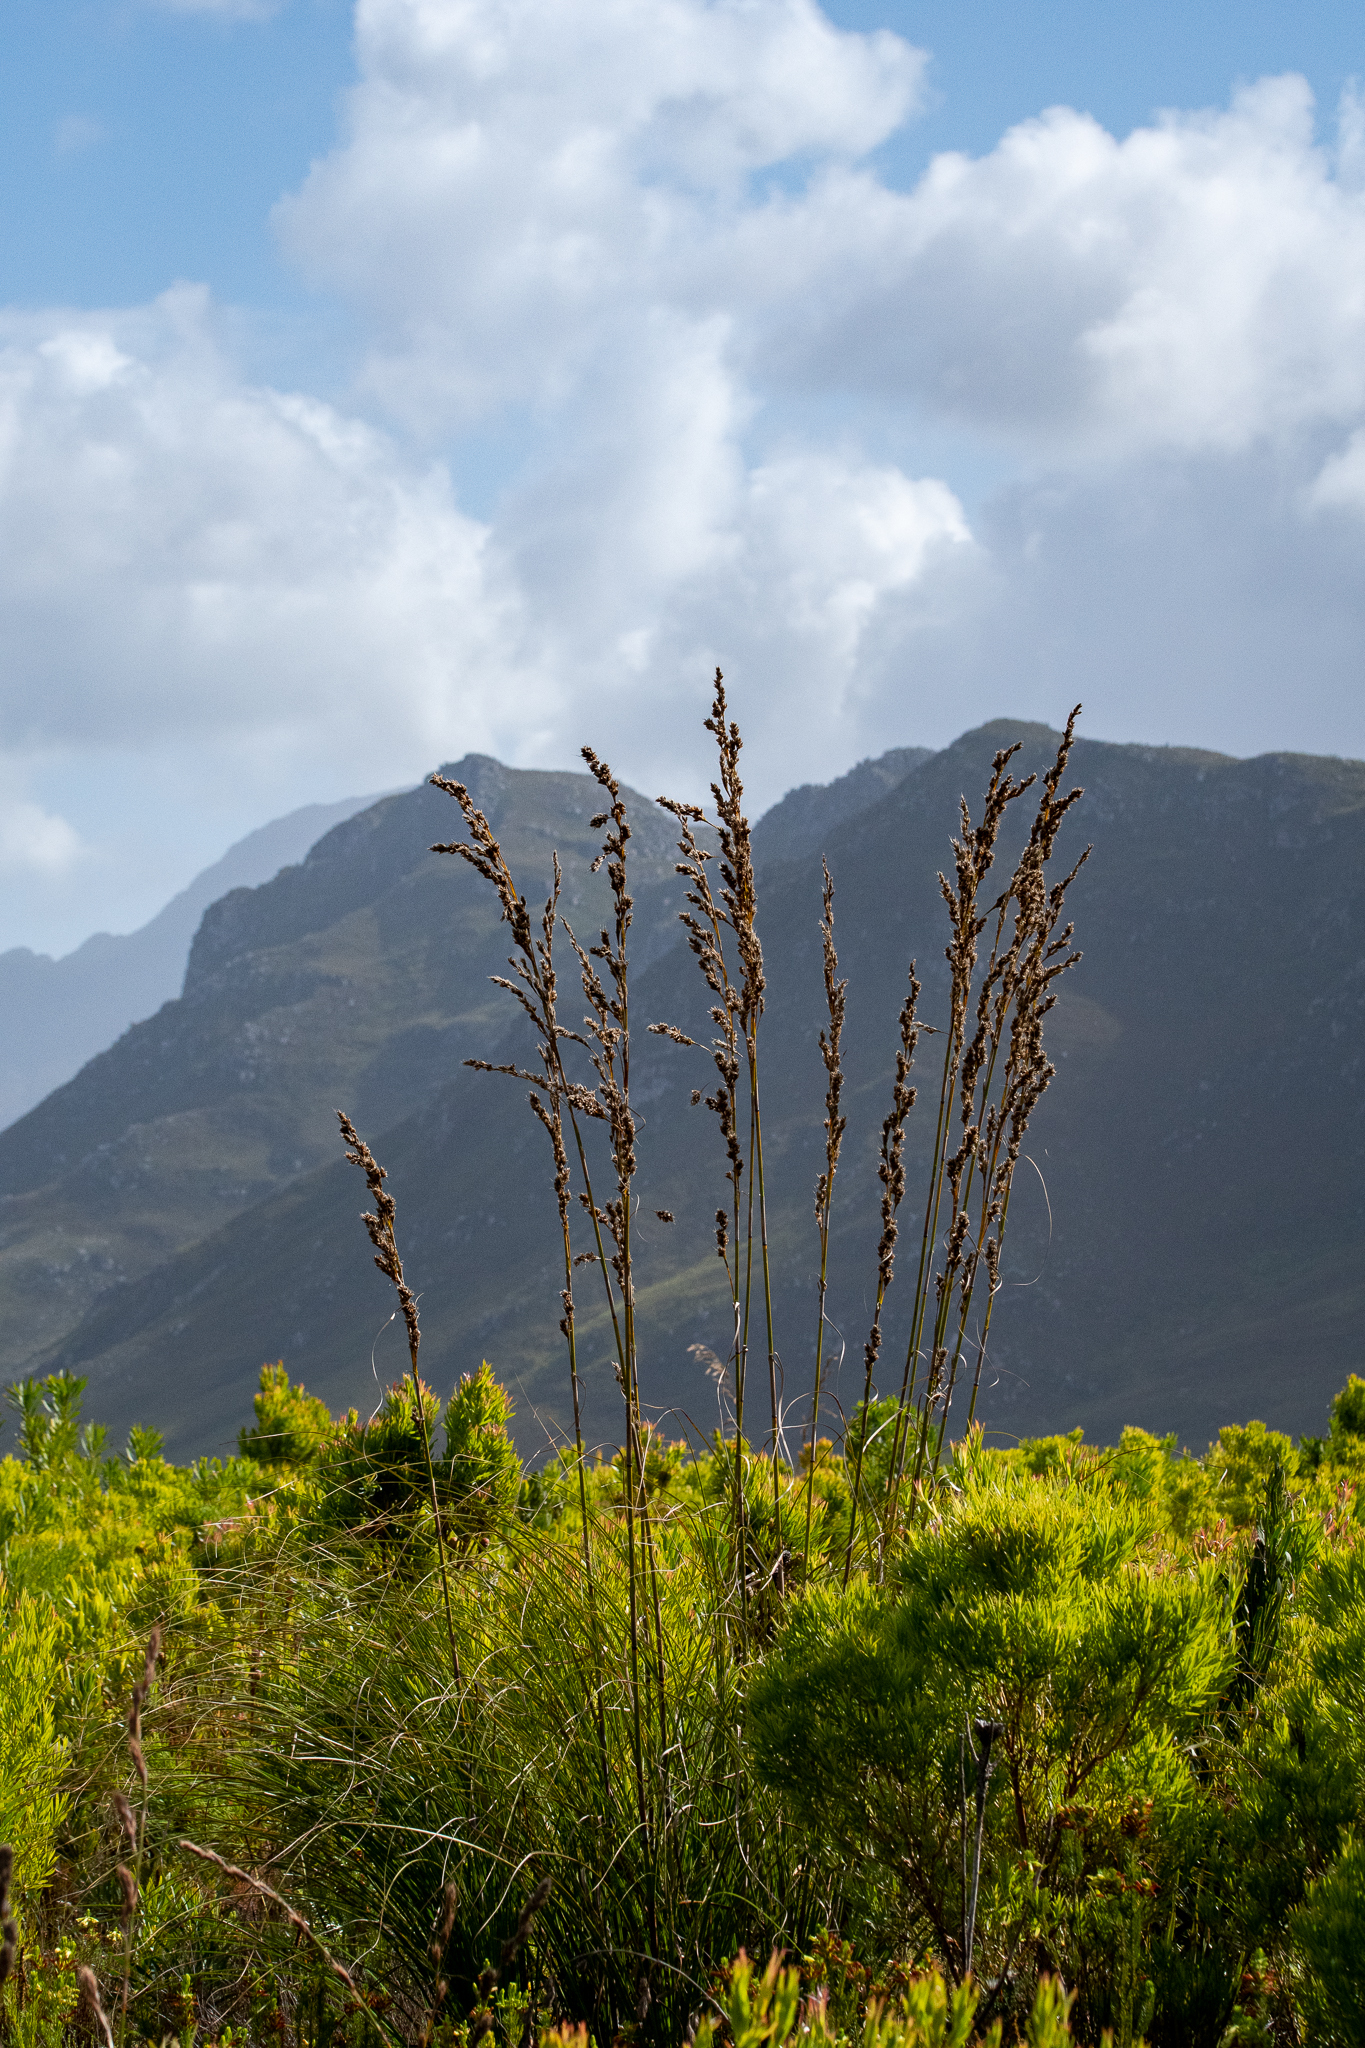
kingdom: Plantae
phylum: Tracheophyta
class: Liliopsida
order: Poales
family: Cyperaceae
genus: Tetraria
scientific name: Tetraria bromoides
